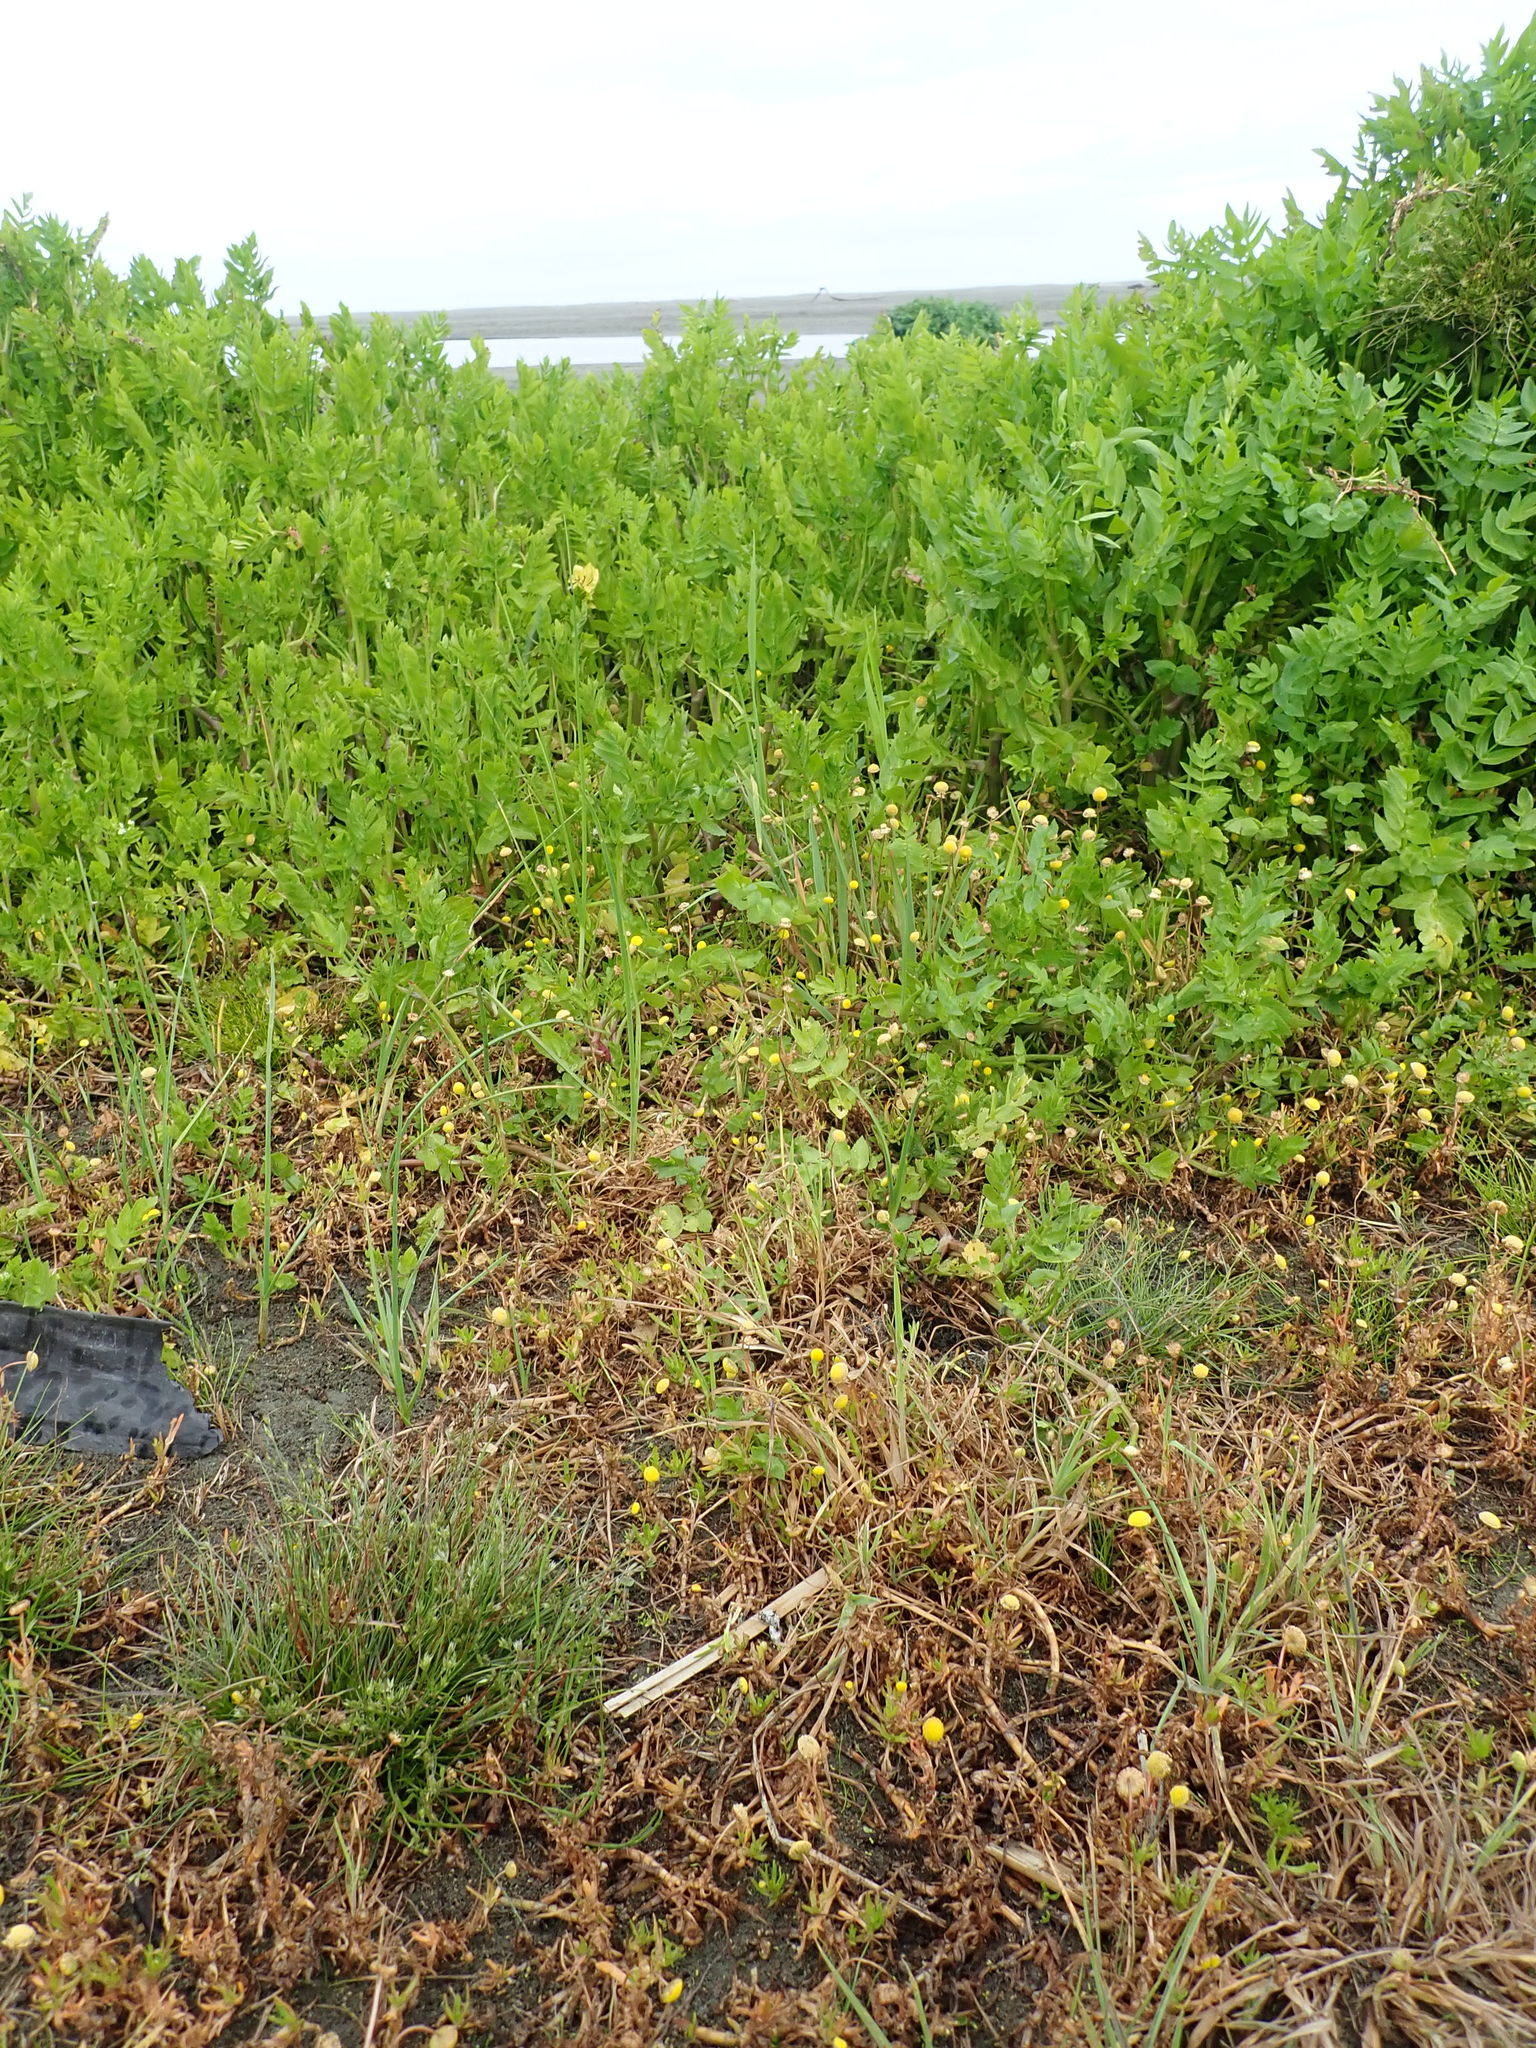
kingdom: Plantae
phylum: Tracheophyta
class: Liliopsida
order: Poales
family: Juncaceae
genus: Juncus
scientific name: Juncus bufonius
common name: Toad rush
